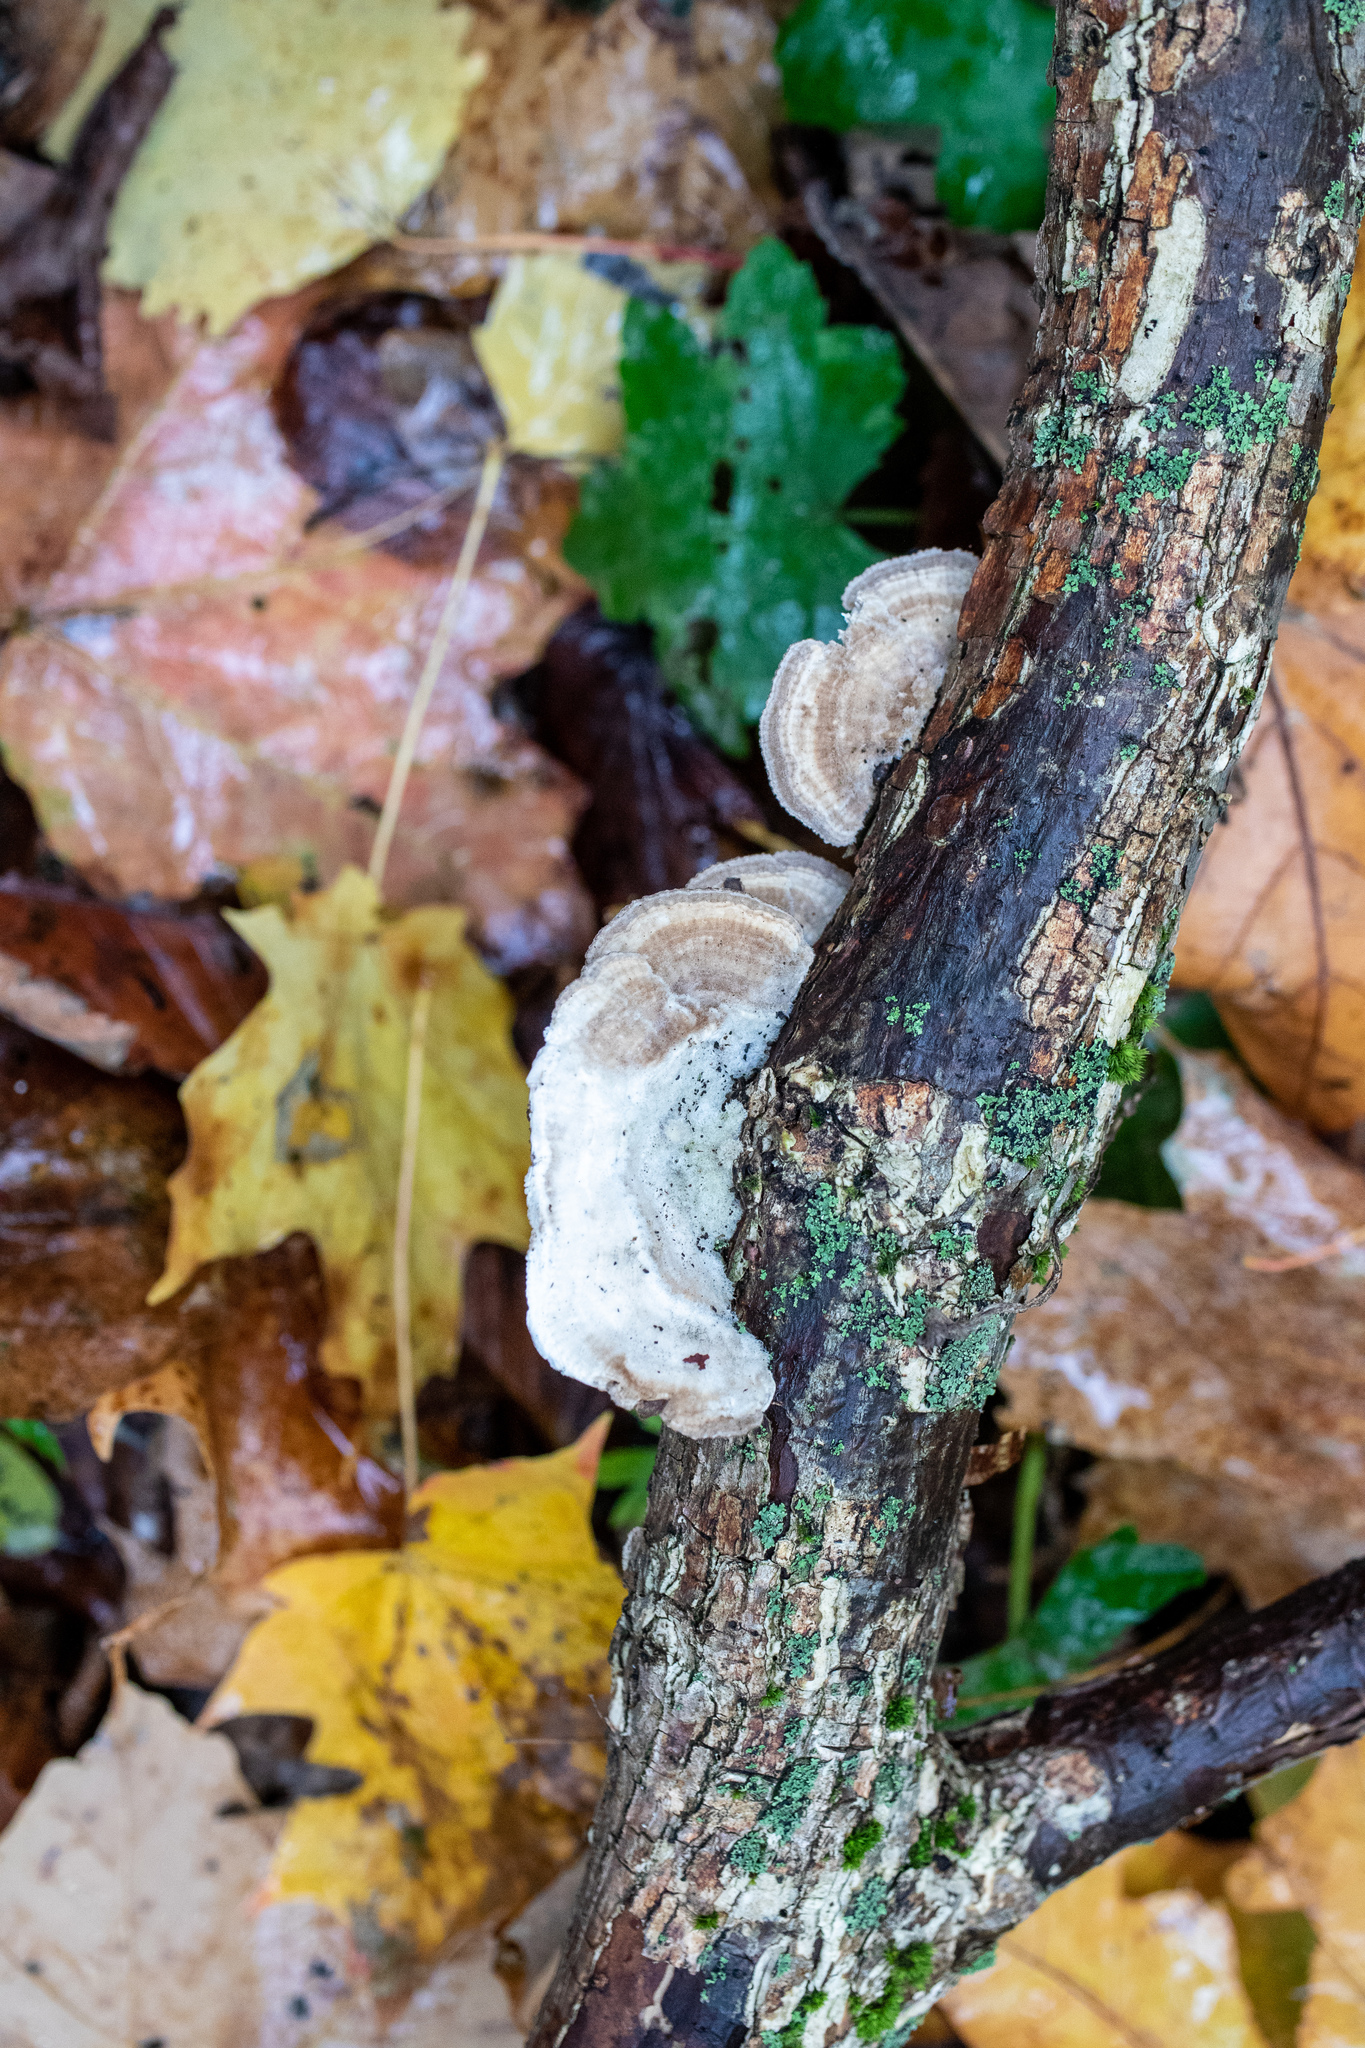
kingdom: Fungi
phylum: Basidiomycota
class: Agaricomycetes
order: Polyporales
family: Polyporaceae
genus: Lenzites
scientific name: Lenzites betulinus
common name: Birch mazegill
